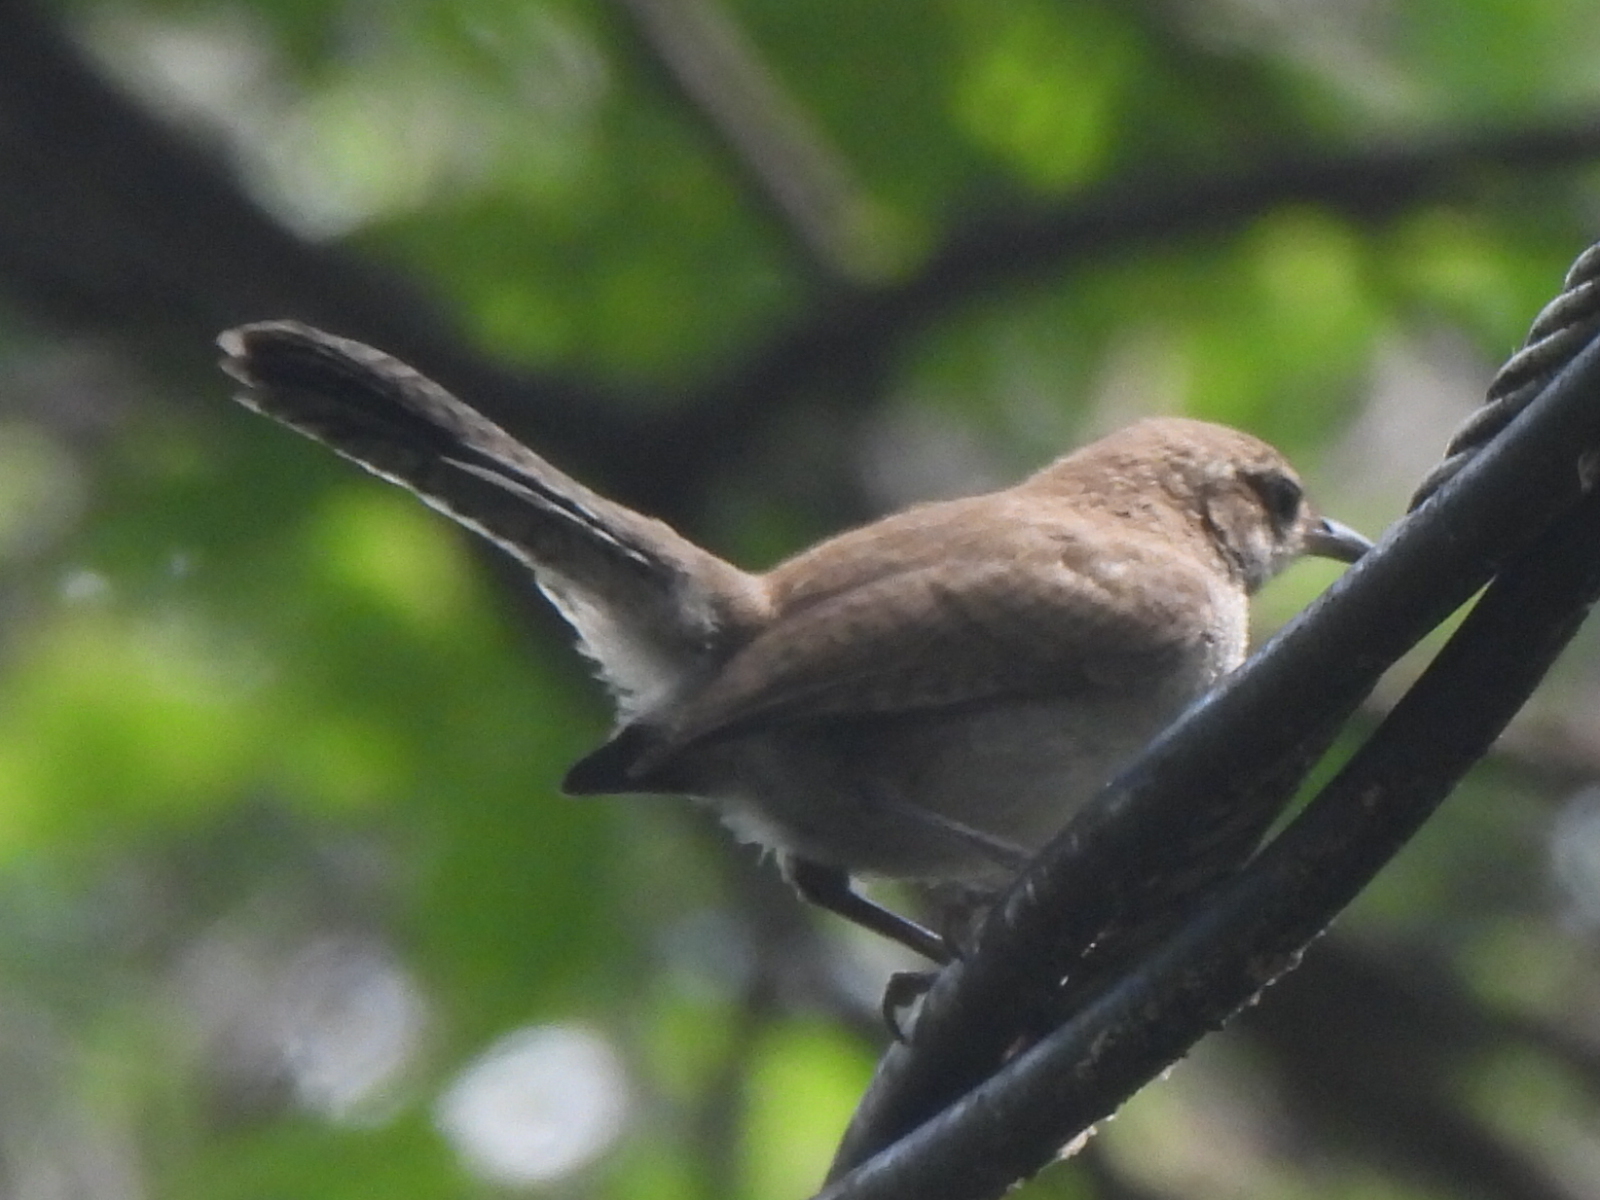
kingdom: Animalia
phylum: Chordata
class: Aves
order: Passeriformes
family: Troglodytidae
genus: Thryomanes
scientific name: Thryomanes bewickii
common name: Bewick's wren
